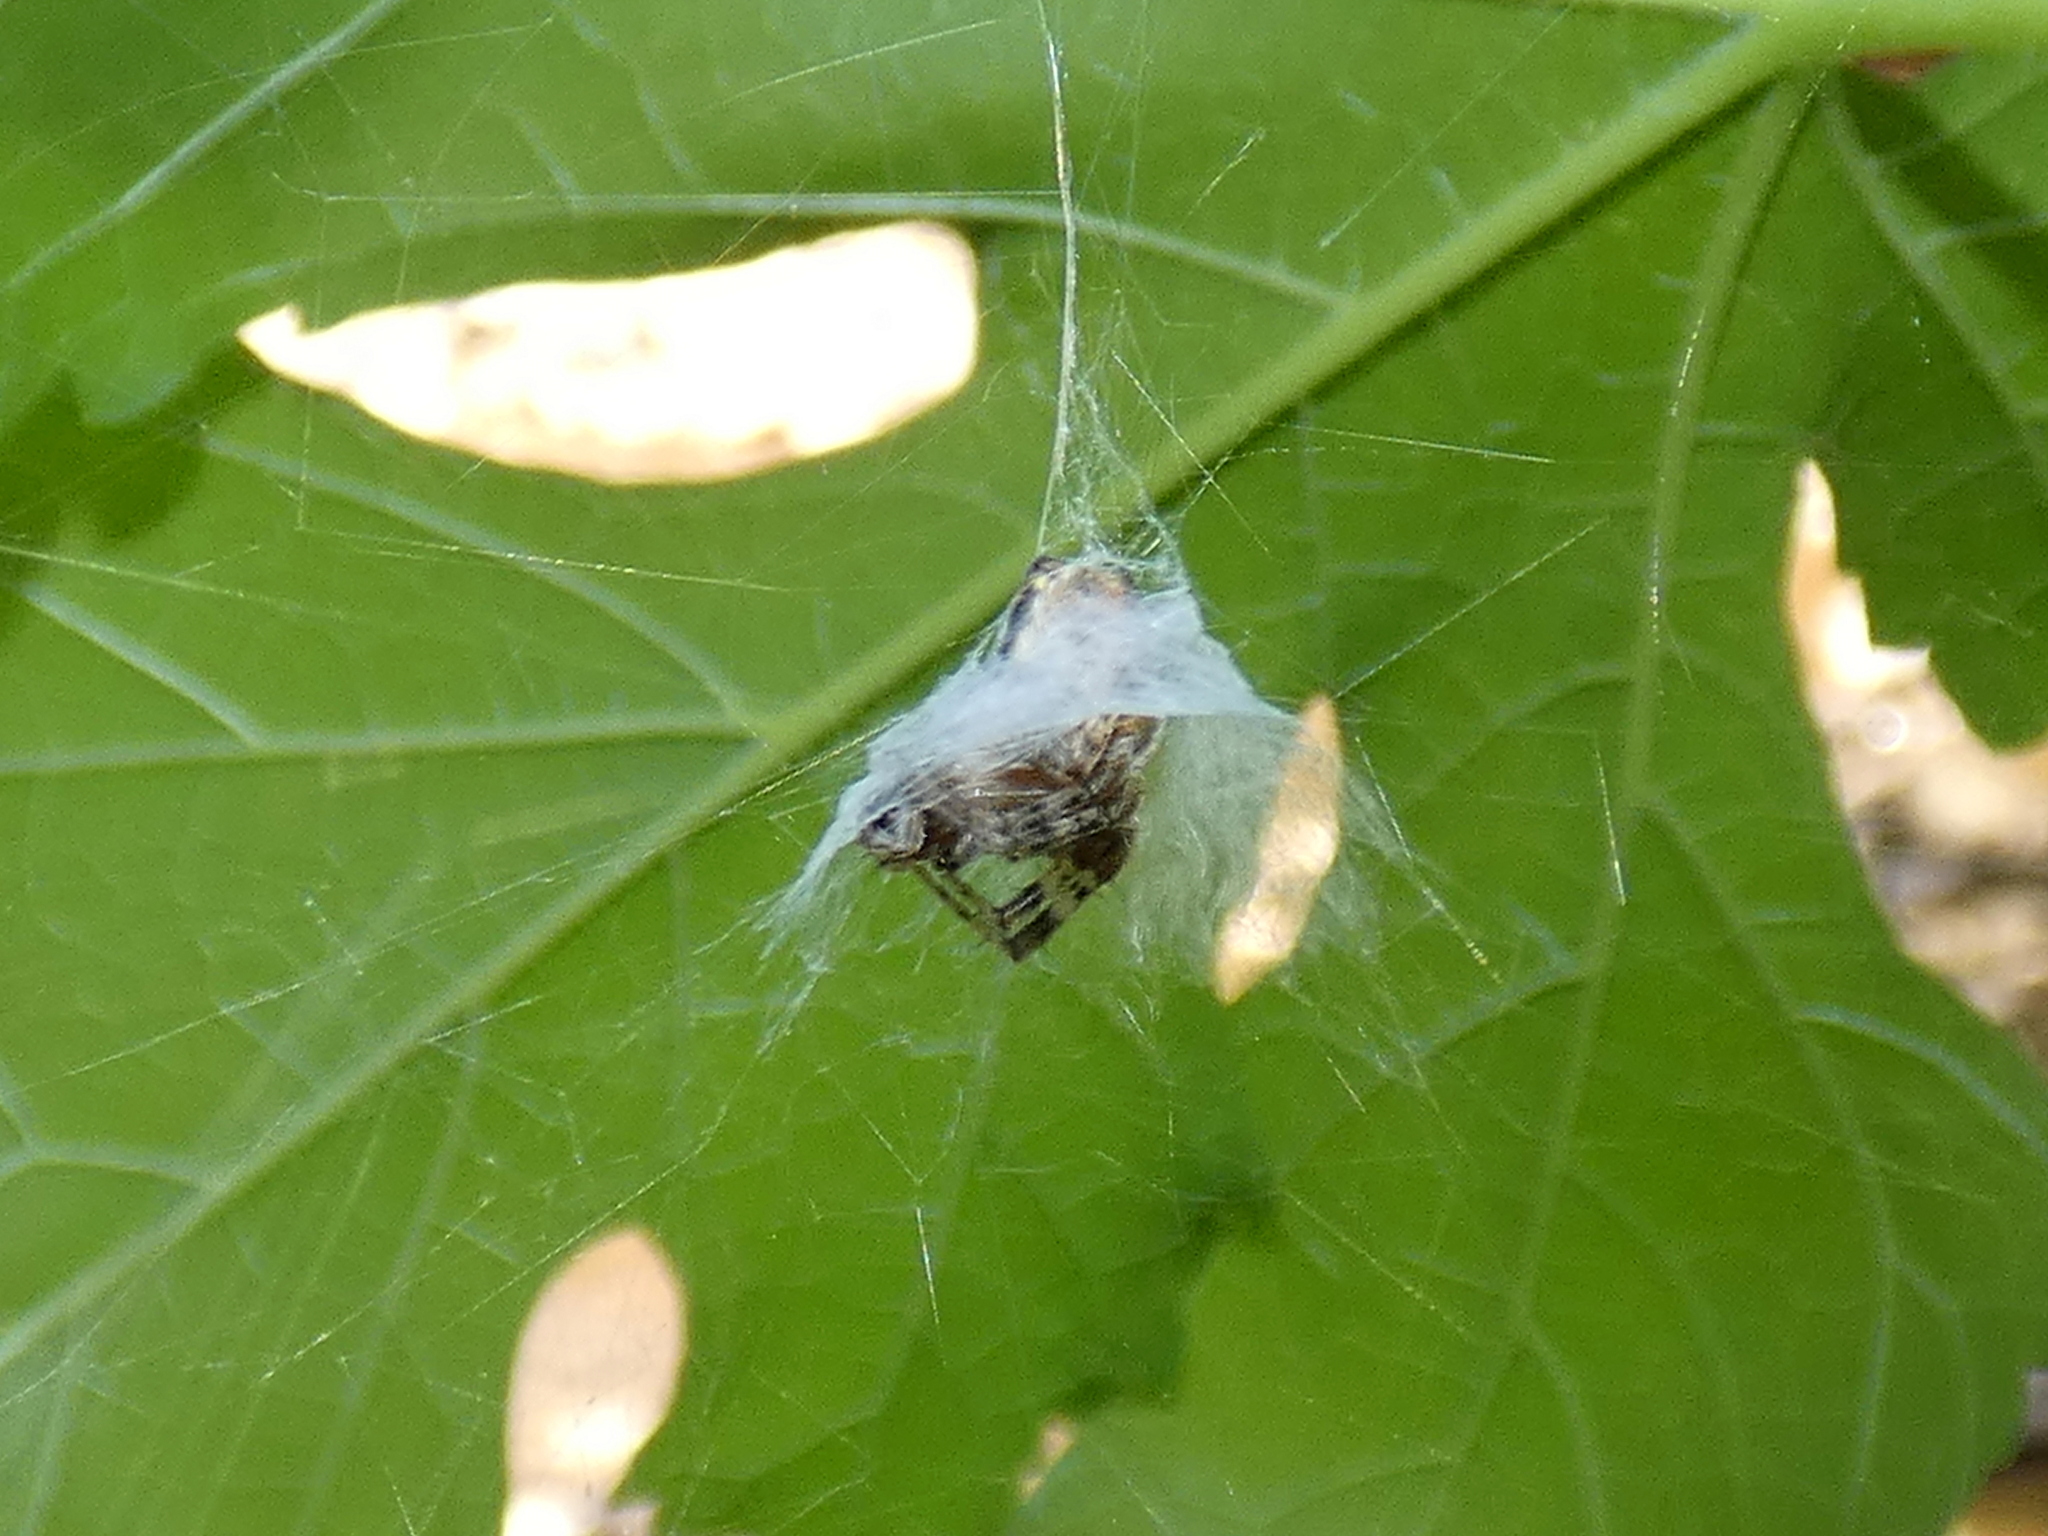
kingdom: Animalia
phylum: Arthropoda
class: Arachnida
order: Araneae
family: Araneidae
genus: Metepeira
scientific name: Metepeira labyrinthea
